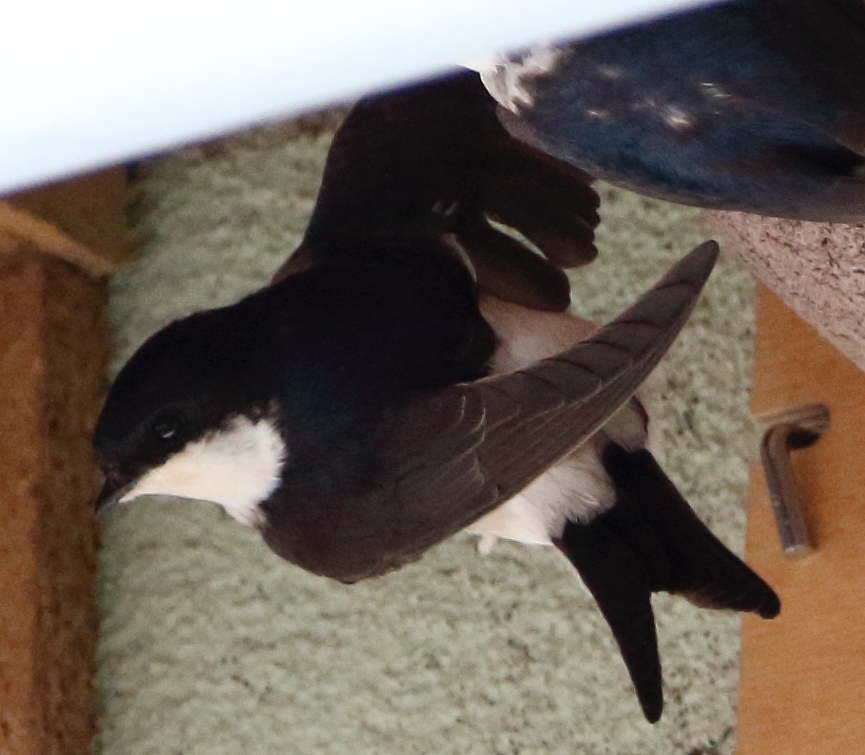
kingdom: Animalia
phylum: Chordata
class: Aves
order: Passeriformes
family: Hirundinidae
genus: Delichon
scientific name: Delichon urbicum
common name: Common house martin
